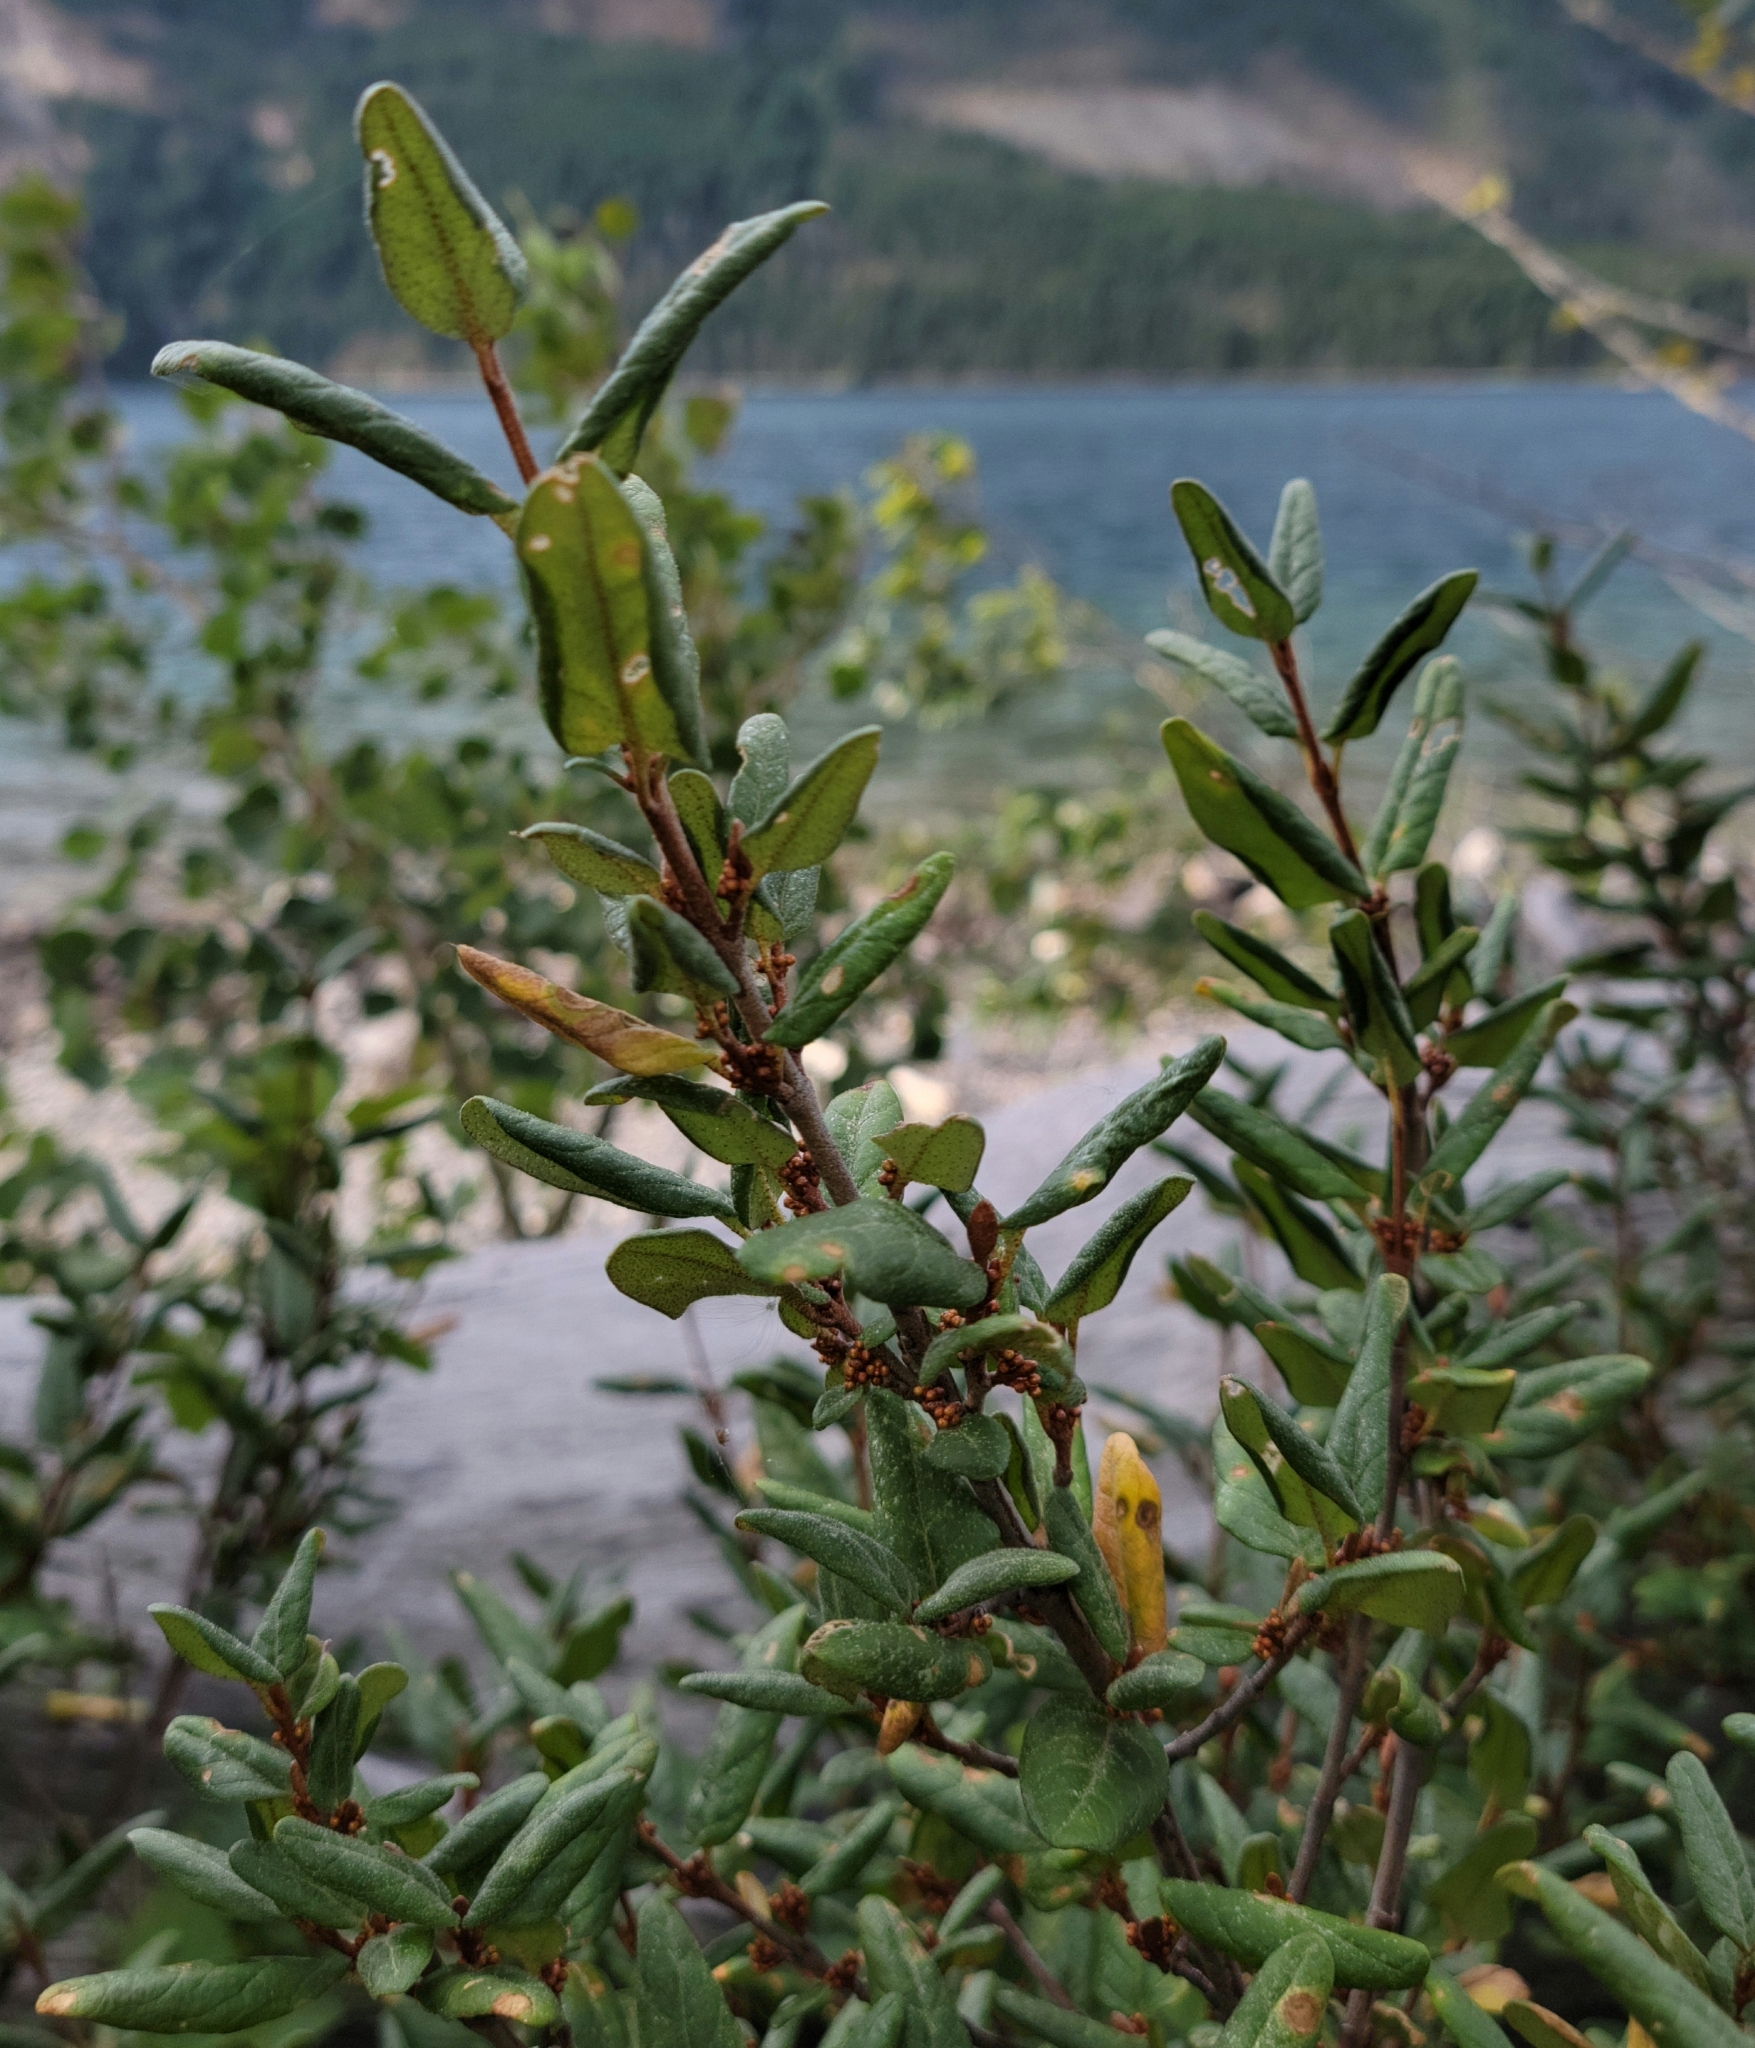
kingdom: Plantae
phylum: Tracheophyta
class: Magnoliopsida
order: Rosales
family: Elaeagnaceae
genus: Shepherdia
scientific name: Shepherdia canadensis
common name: Soapberry
